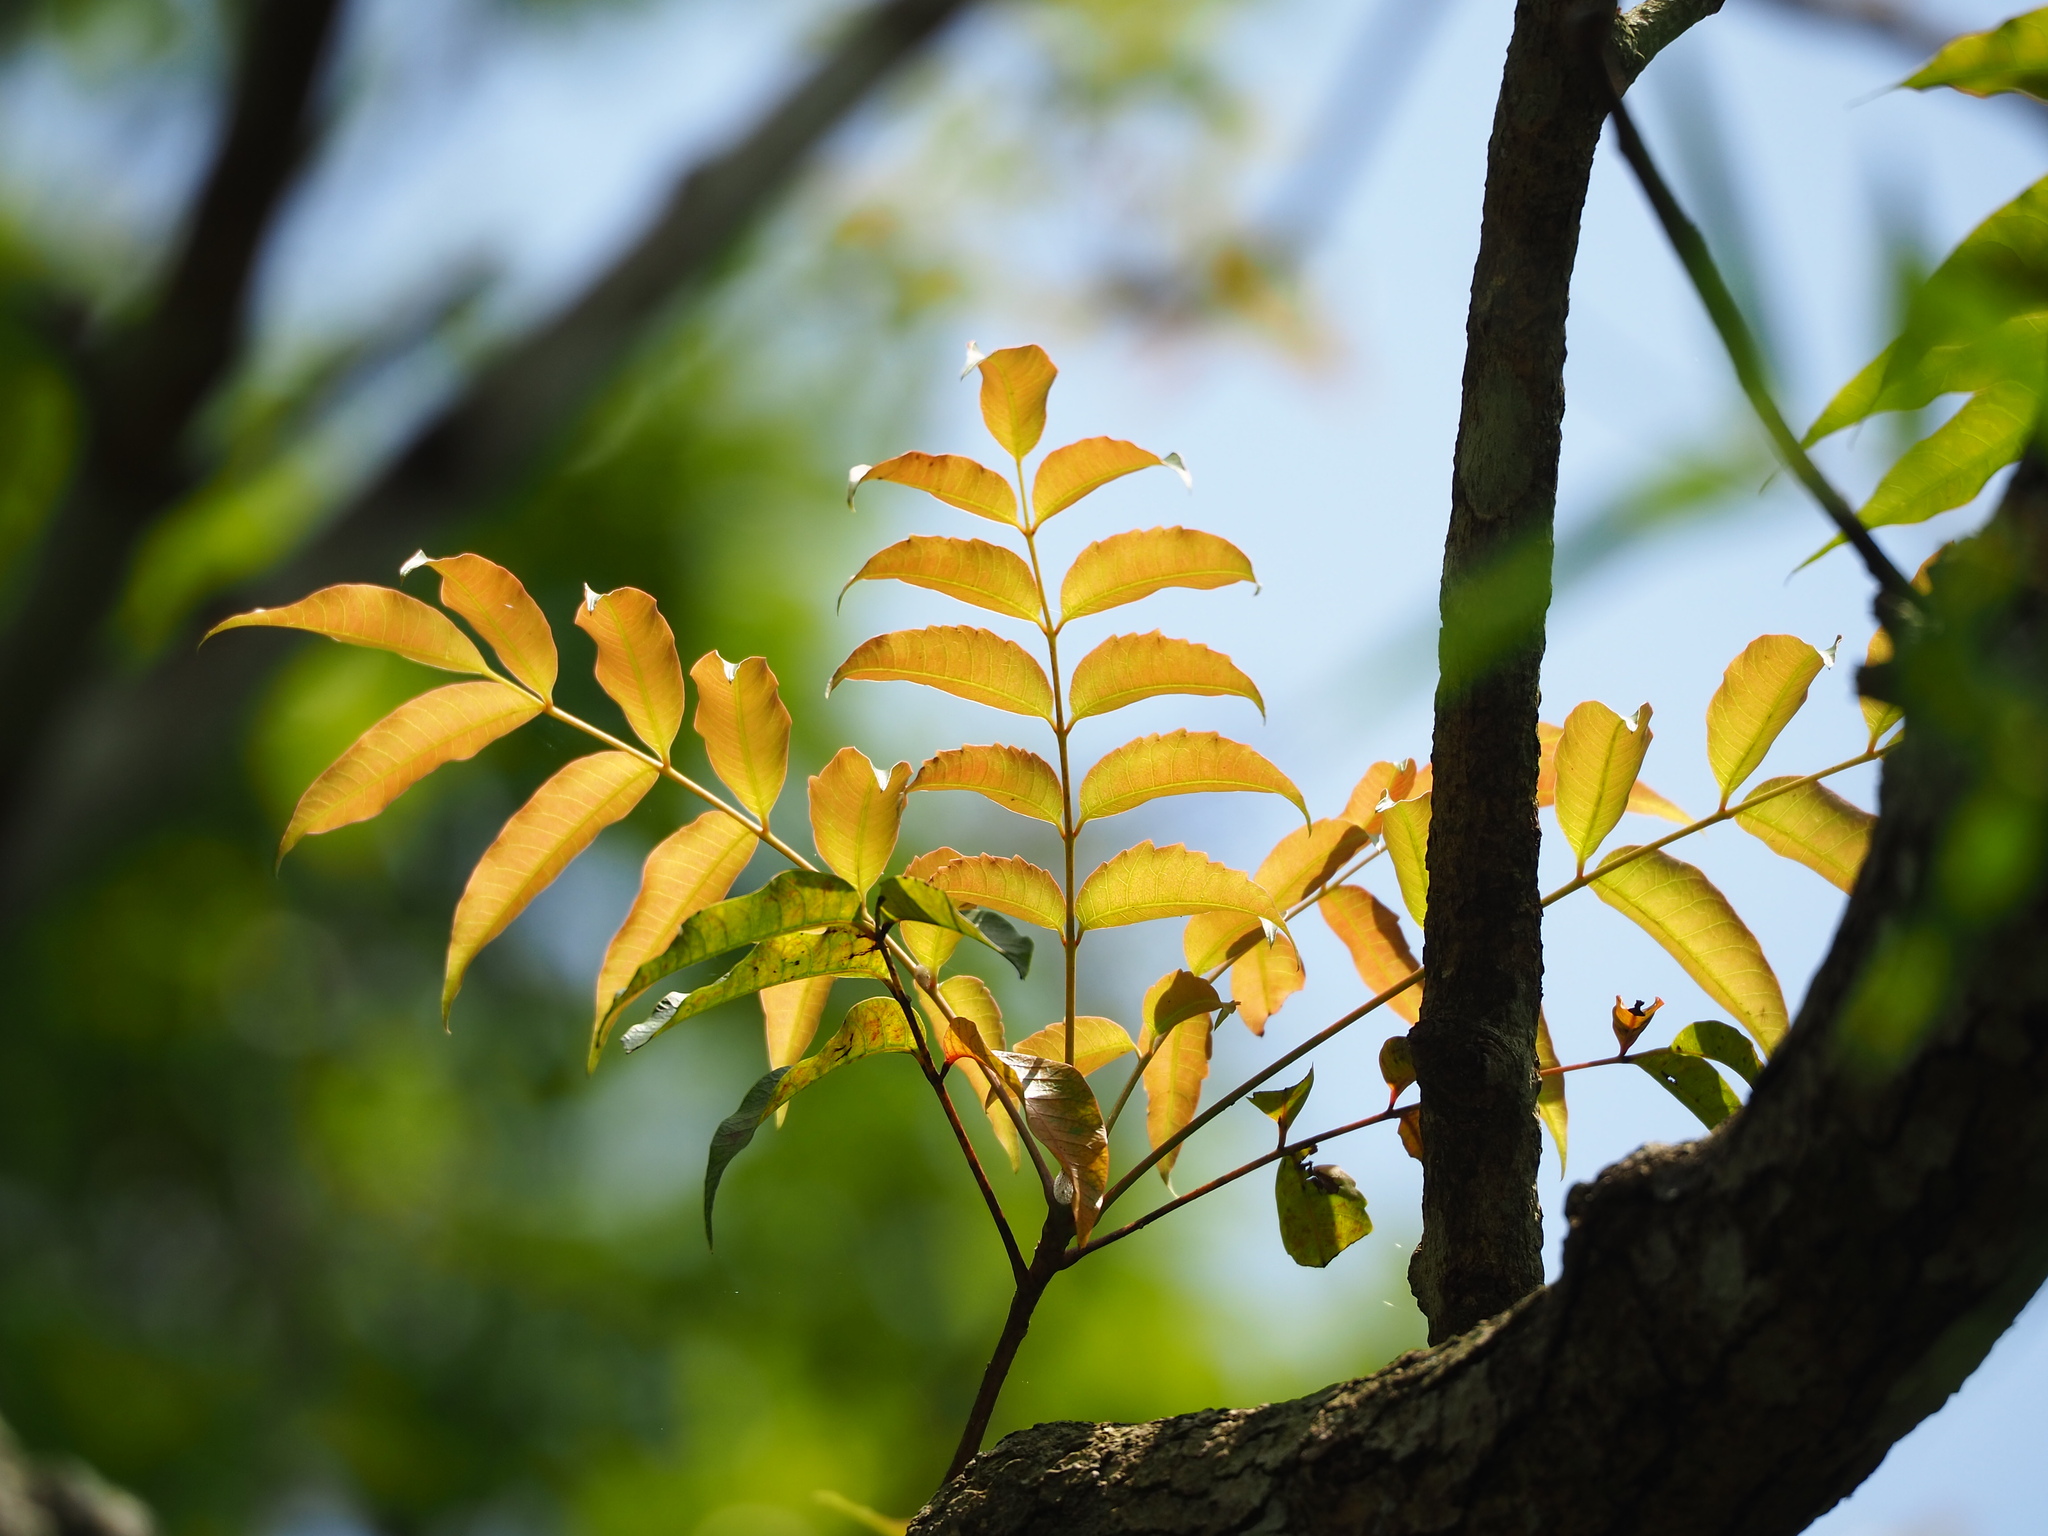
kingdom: Plantae
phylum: Tracheophyta
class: Magnoliopsida
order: Sapindales
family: Anacardiaceae
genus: Toxicodendron
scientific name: Toxicodendron succedaneum
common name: Wax tree
